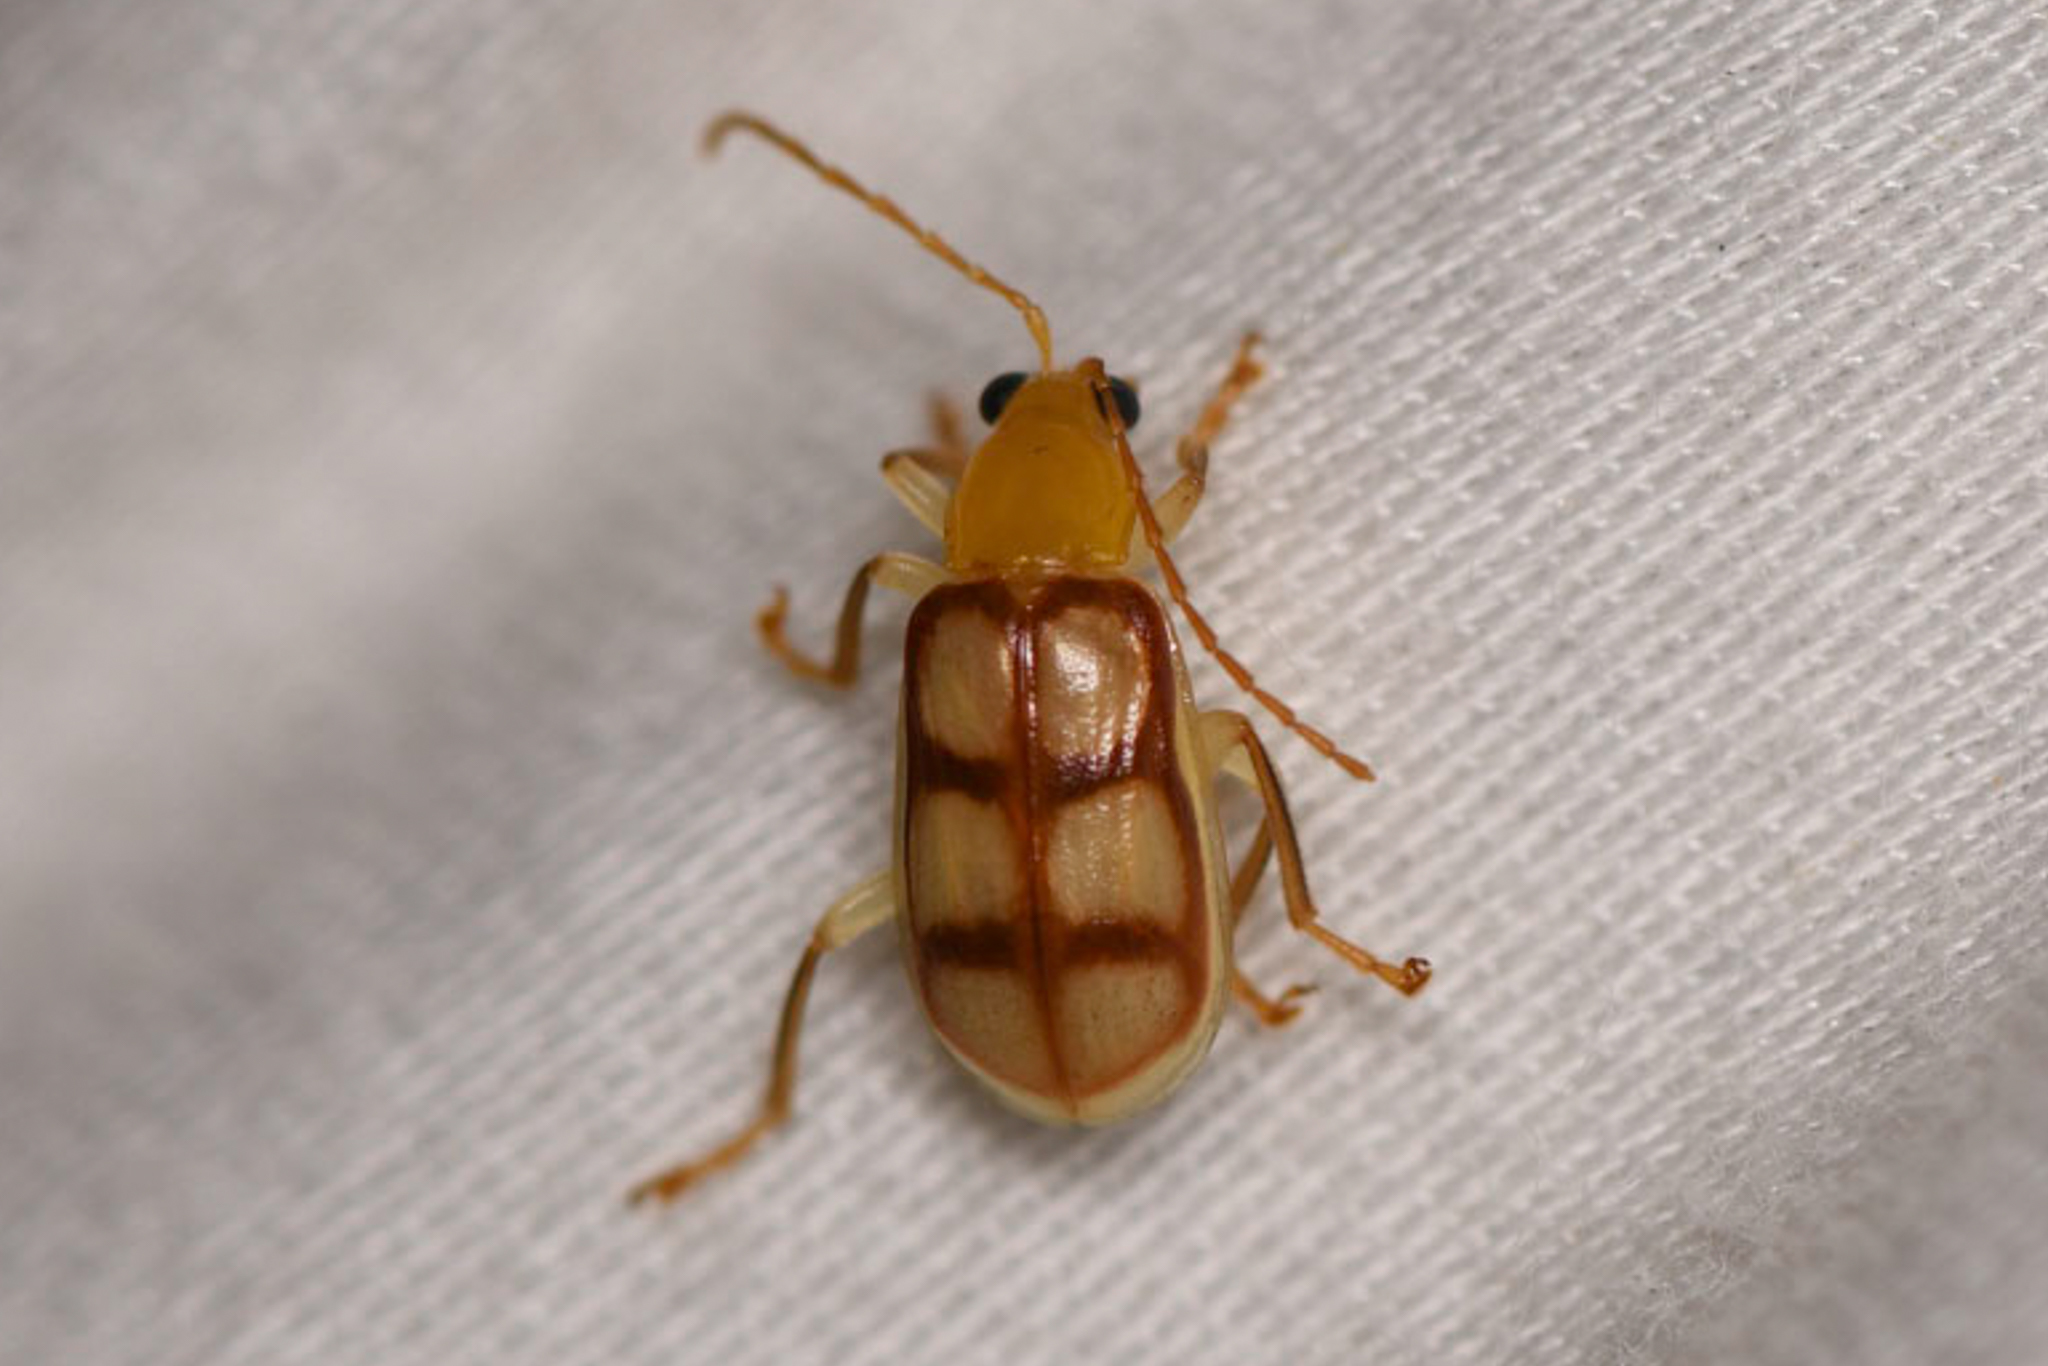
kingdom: Animalia
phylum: Arthropoda
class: Insecta
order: Coleoptera
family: Chrysomelidae
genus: Paranapiacaba
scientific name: Paranapiacaba
